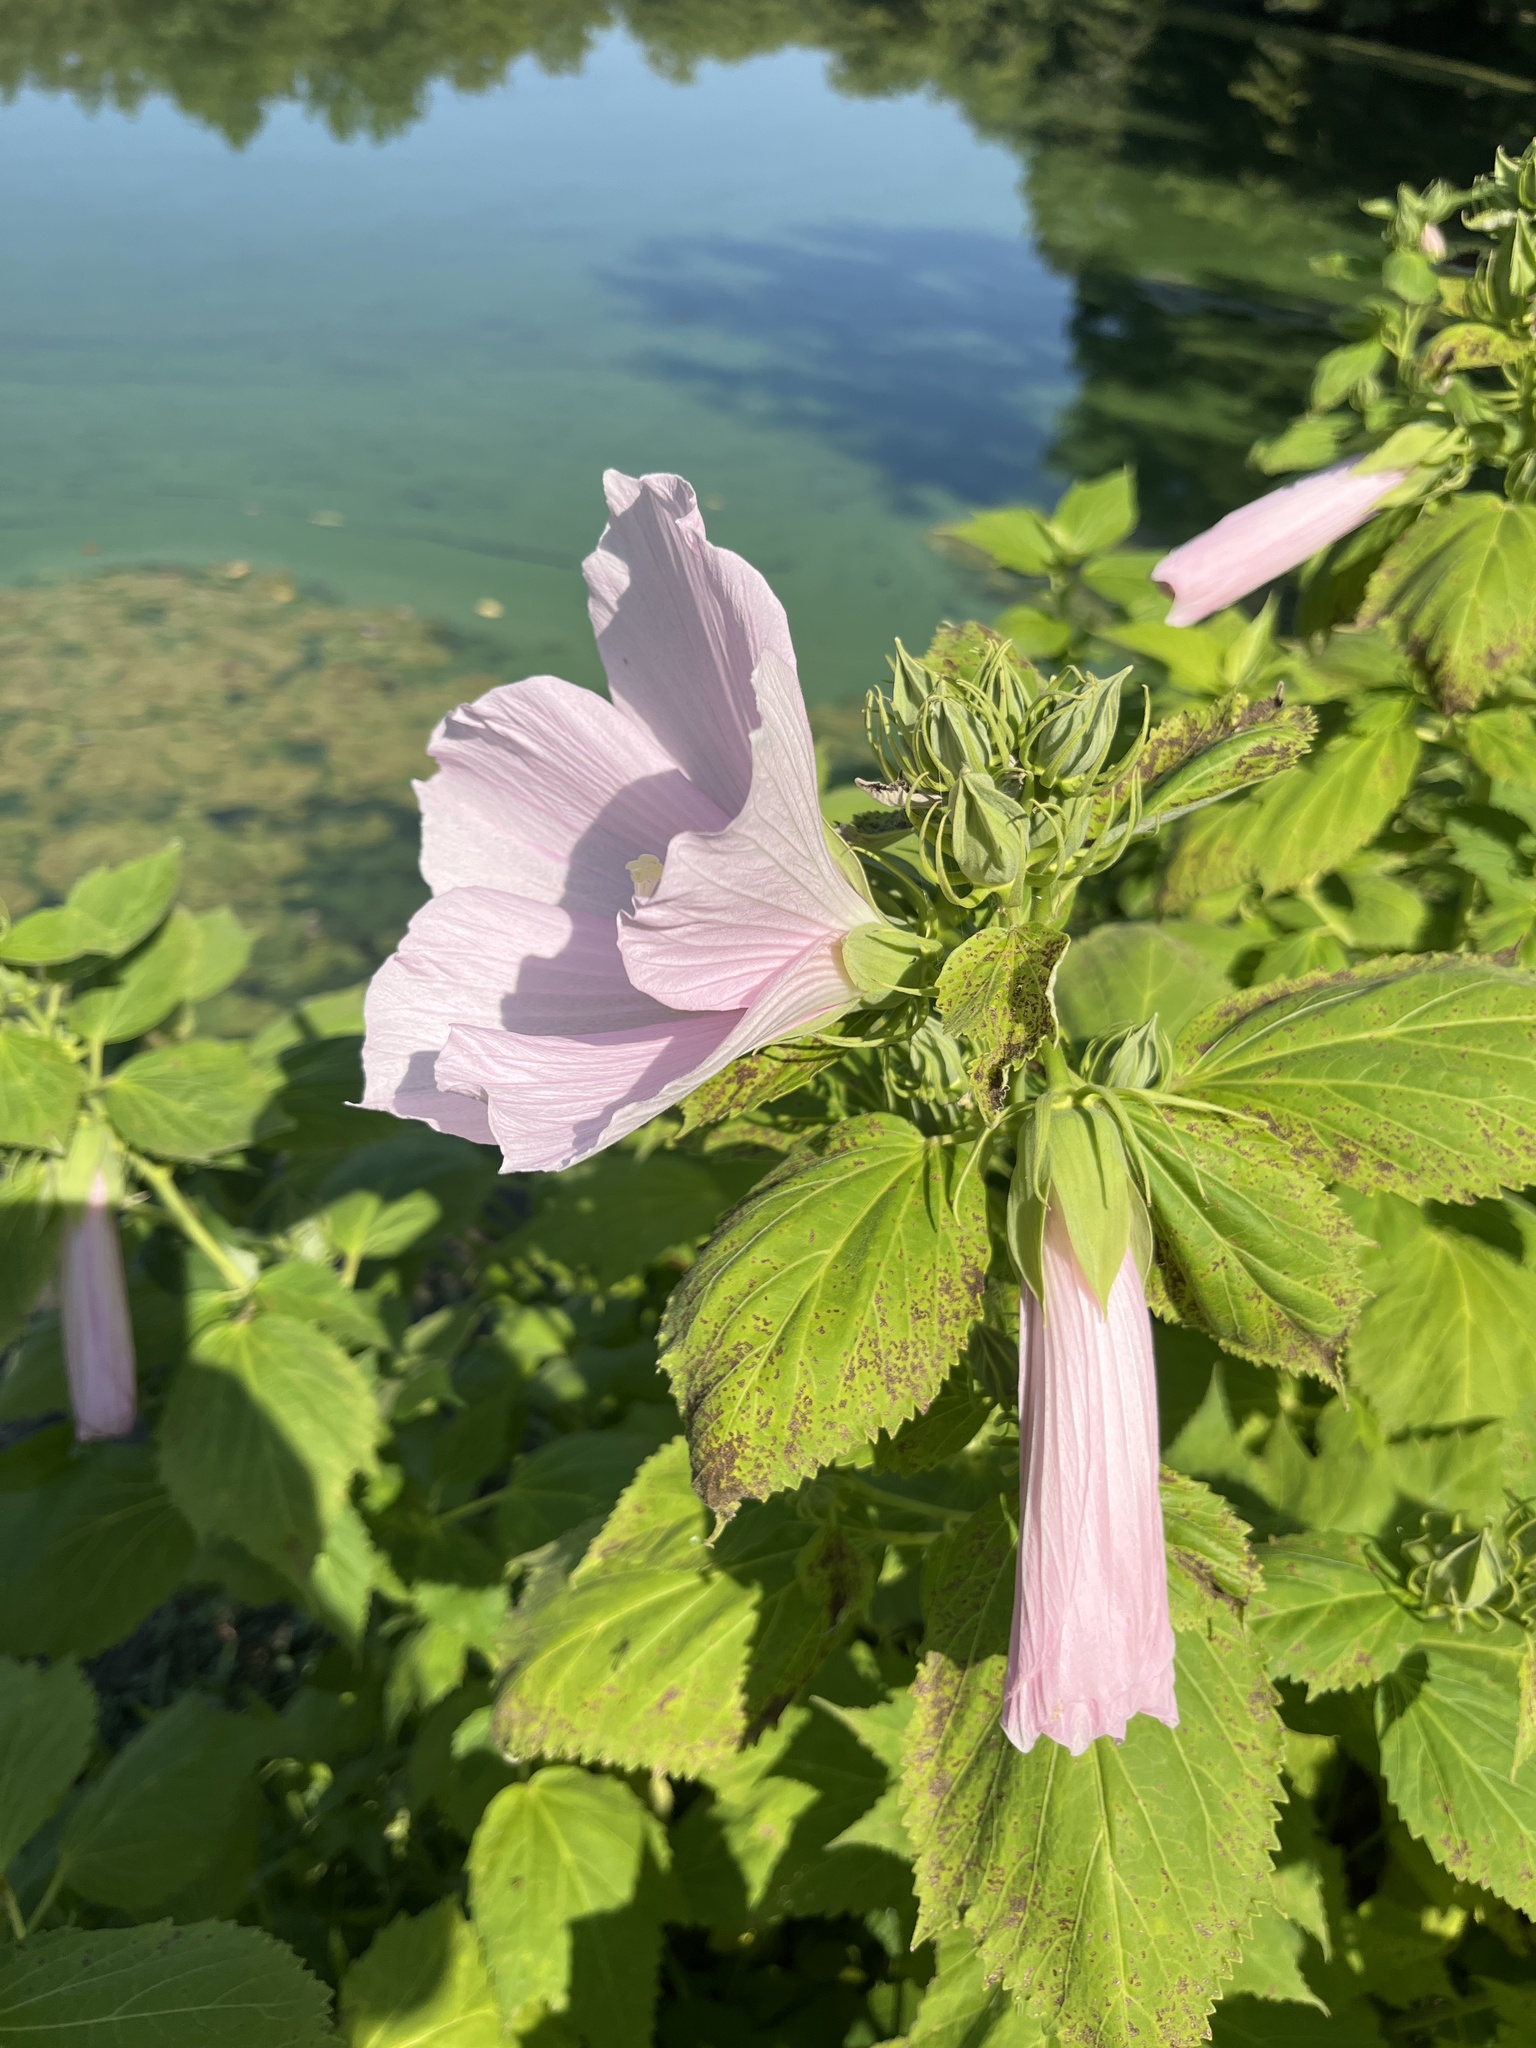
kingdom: Plantae
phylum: Tracheophyta
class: Magnoliopsida
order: Malvales
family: Malvaceae
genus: Hibiscus
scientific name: Hibiscus moscheutos
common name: Common rose-mallow
